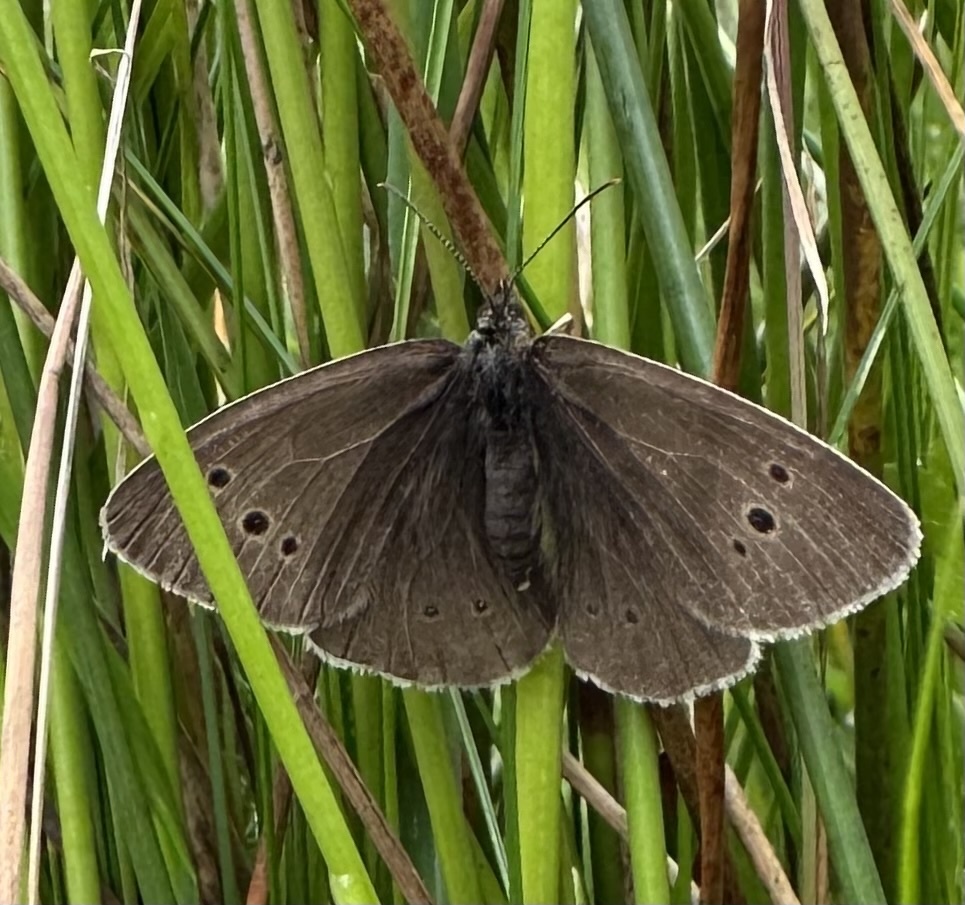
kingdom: Animalia
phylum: Arthropoda
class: Insecta
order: Lepidoptera
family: Nymphalidae
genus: Aphantopus
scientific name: Aphantopus hyperantus
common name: Ringlet
